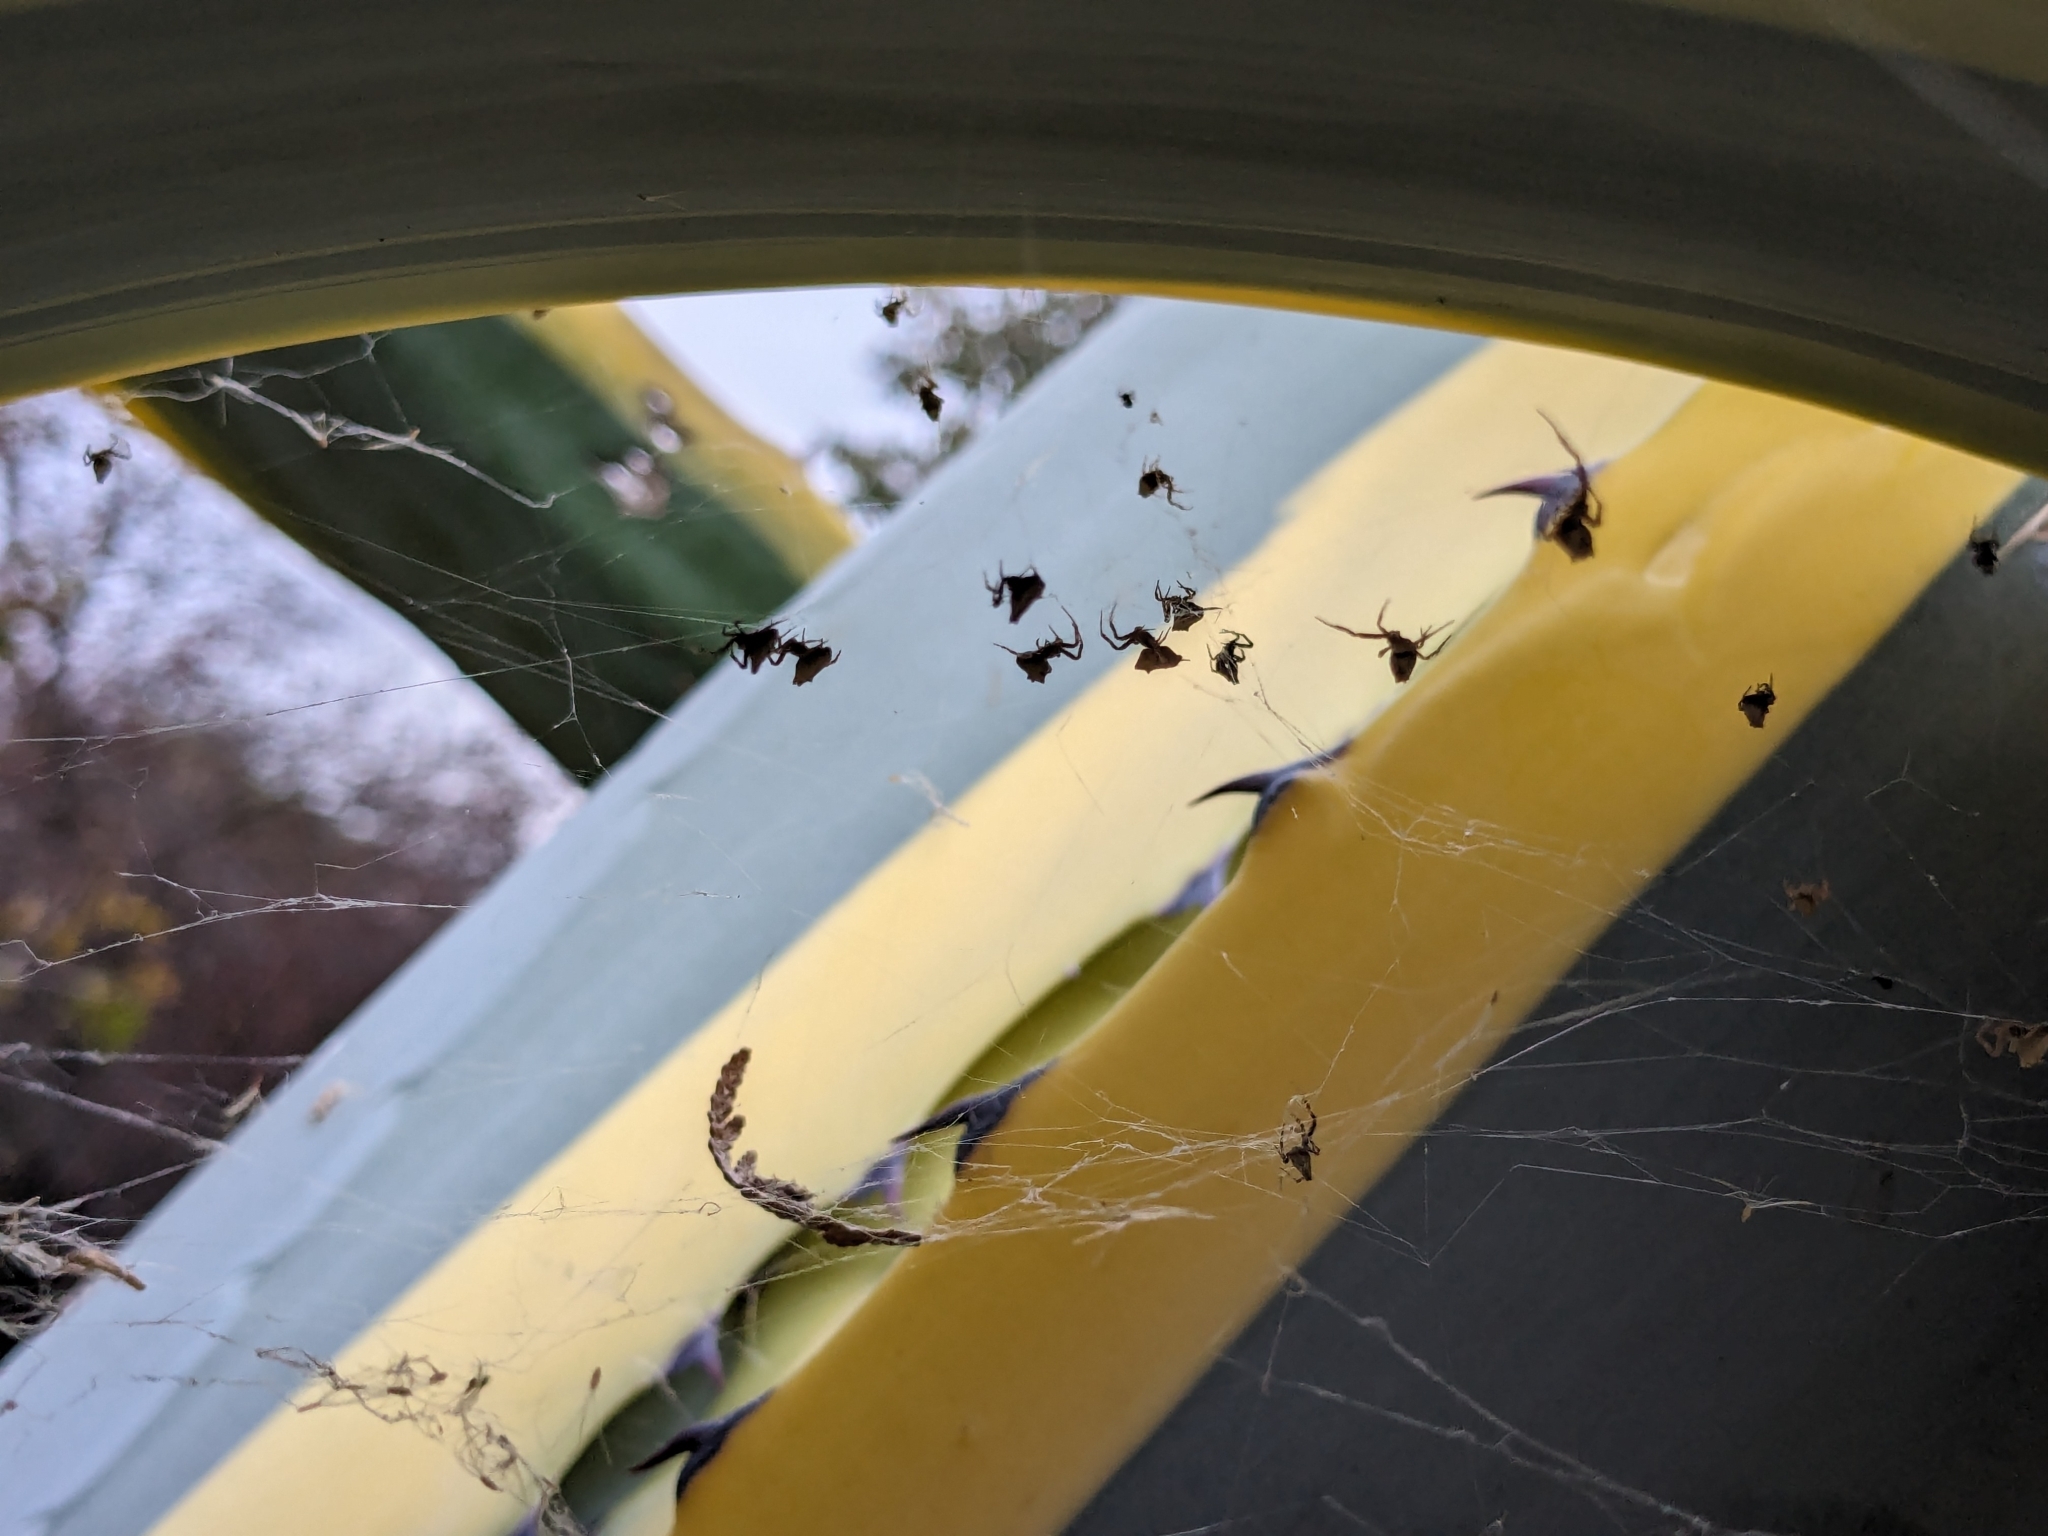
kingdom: Animalia
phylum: Arthropoda
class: Arachnida
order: Araneae
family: Uloboridae
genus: Philoponella
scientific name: Philoponella congregabilis
